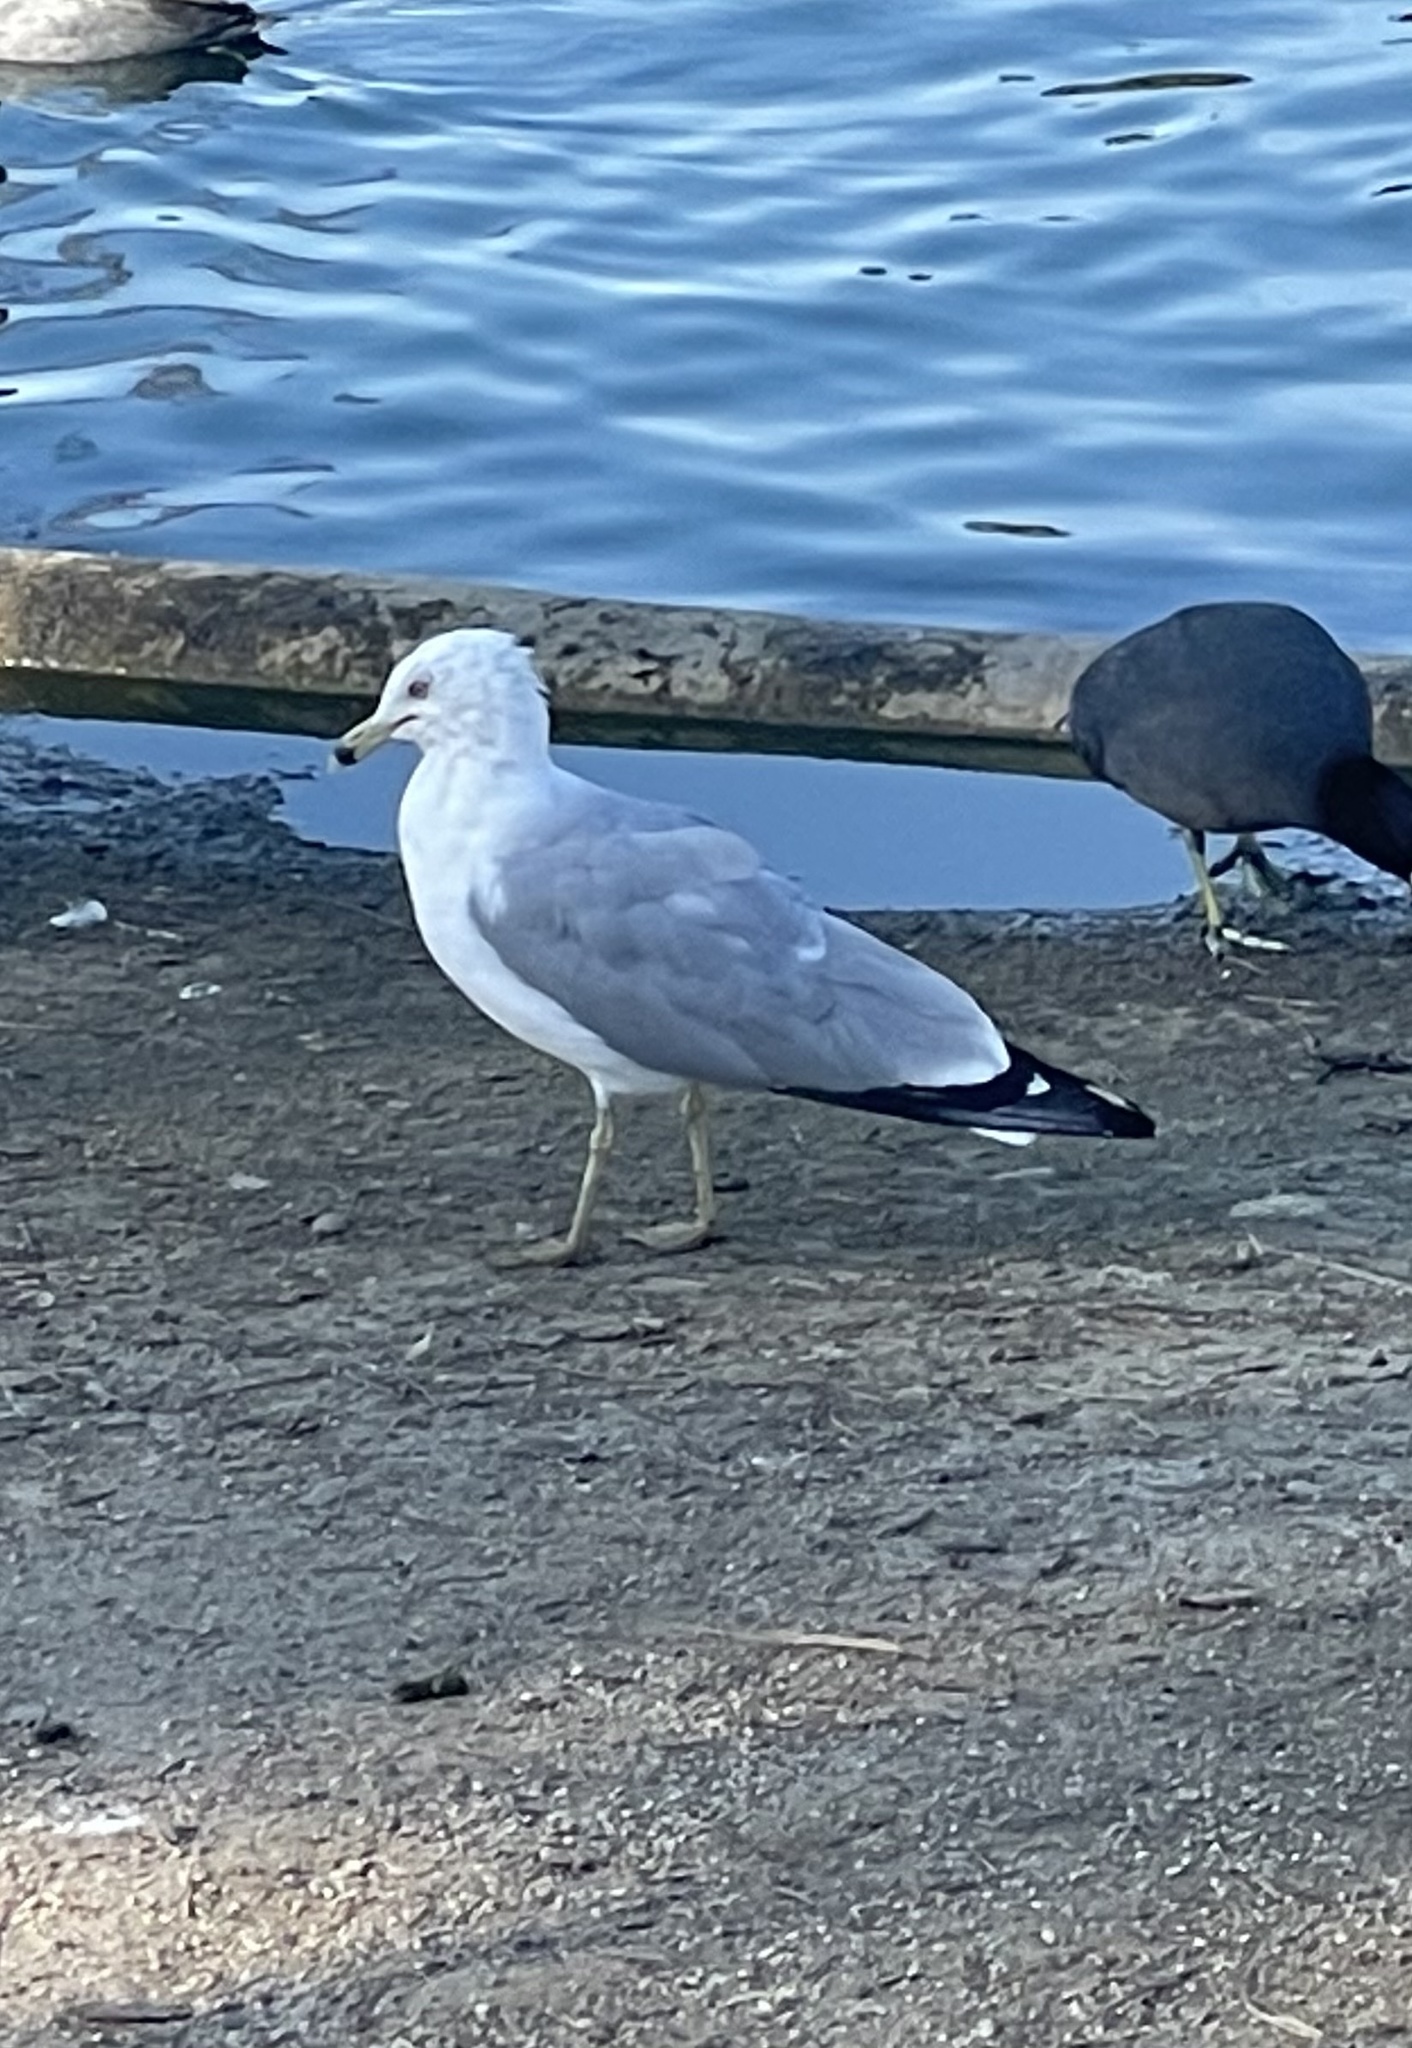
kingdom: Animalia
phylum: Chordata
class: Aves
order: Charadriiformes
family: Laridae
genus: Larus
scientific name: Larus delawarensis
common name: Ring-billed gull
